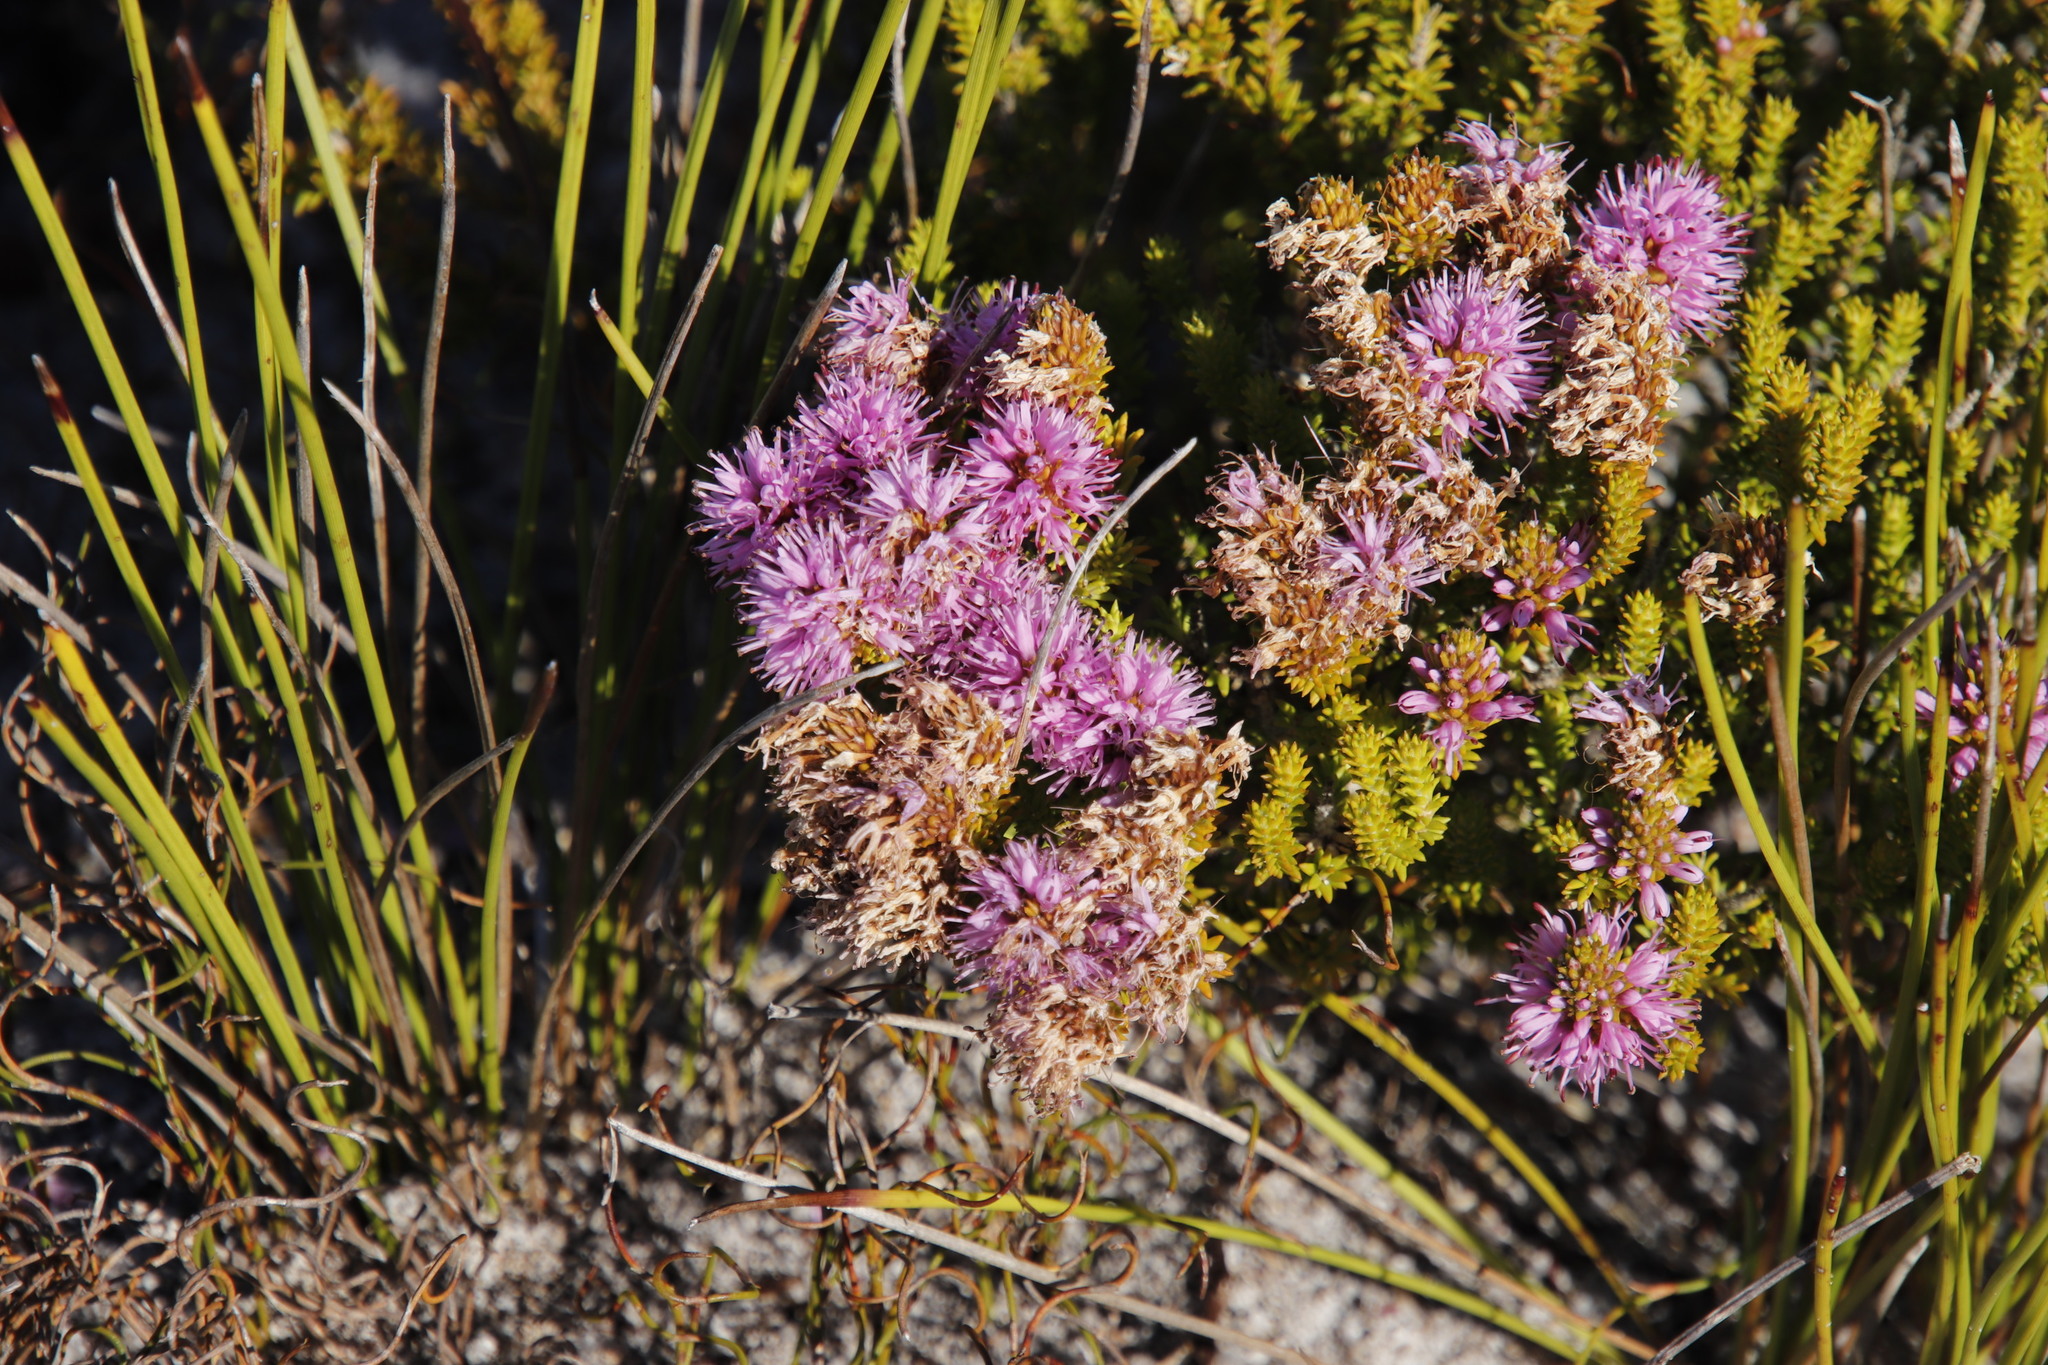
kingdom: Plantae
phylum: Tracheophyta
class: Magnoliopsida
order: Lamiales
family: Stilbaceae
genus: Stilbe
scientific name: Stilbe ericoides
